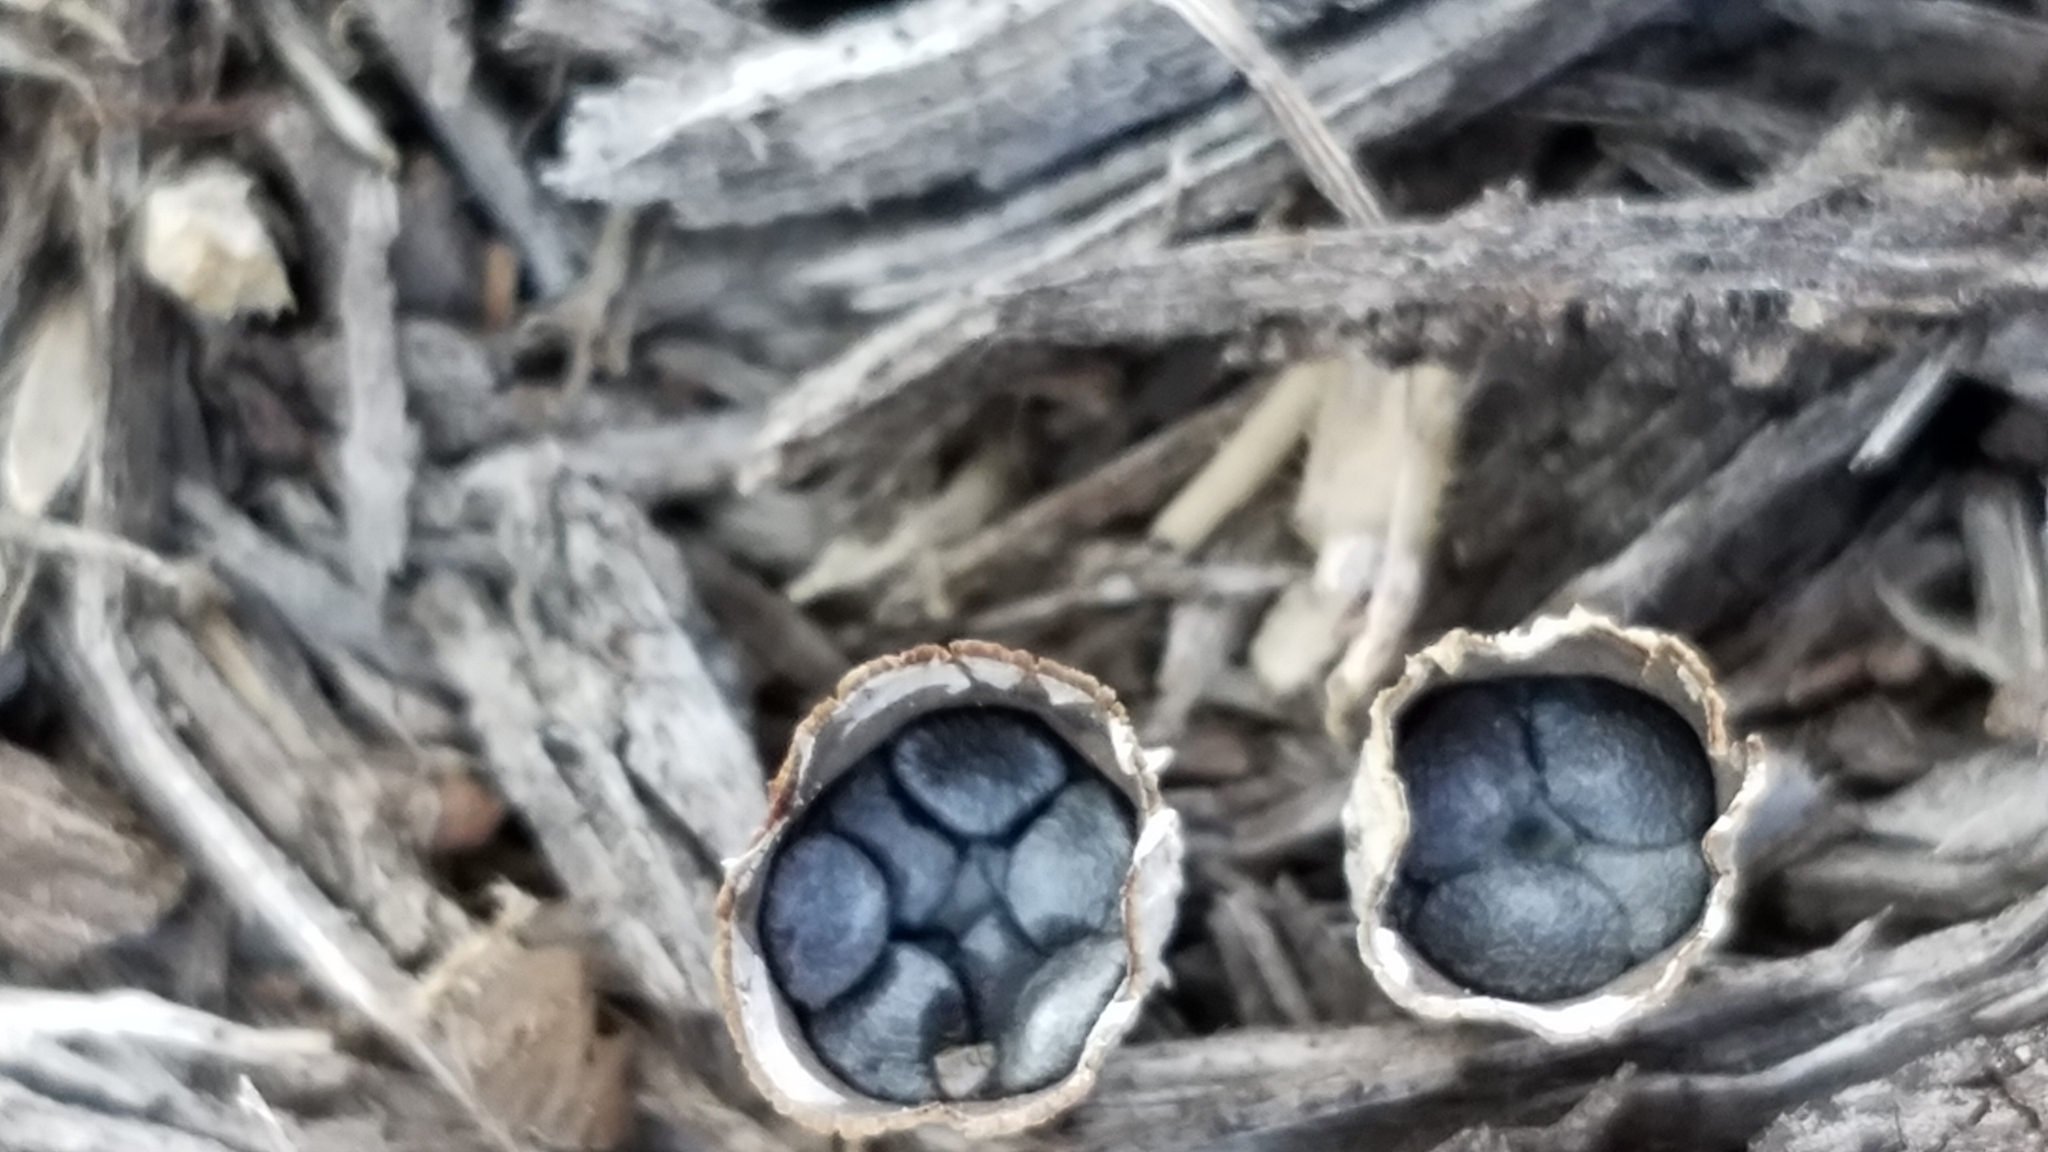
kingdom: Fungi
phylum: Basidiomycota
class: Agaricomycetes
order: Agaricales
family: Agaricaceae
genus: Cyathus
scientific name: Cyathus stercoreus
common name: Dung bird's nest
